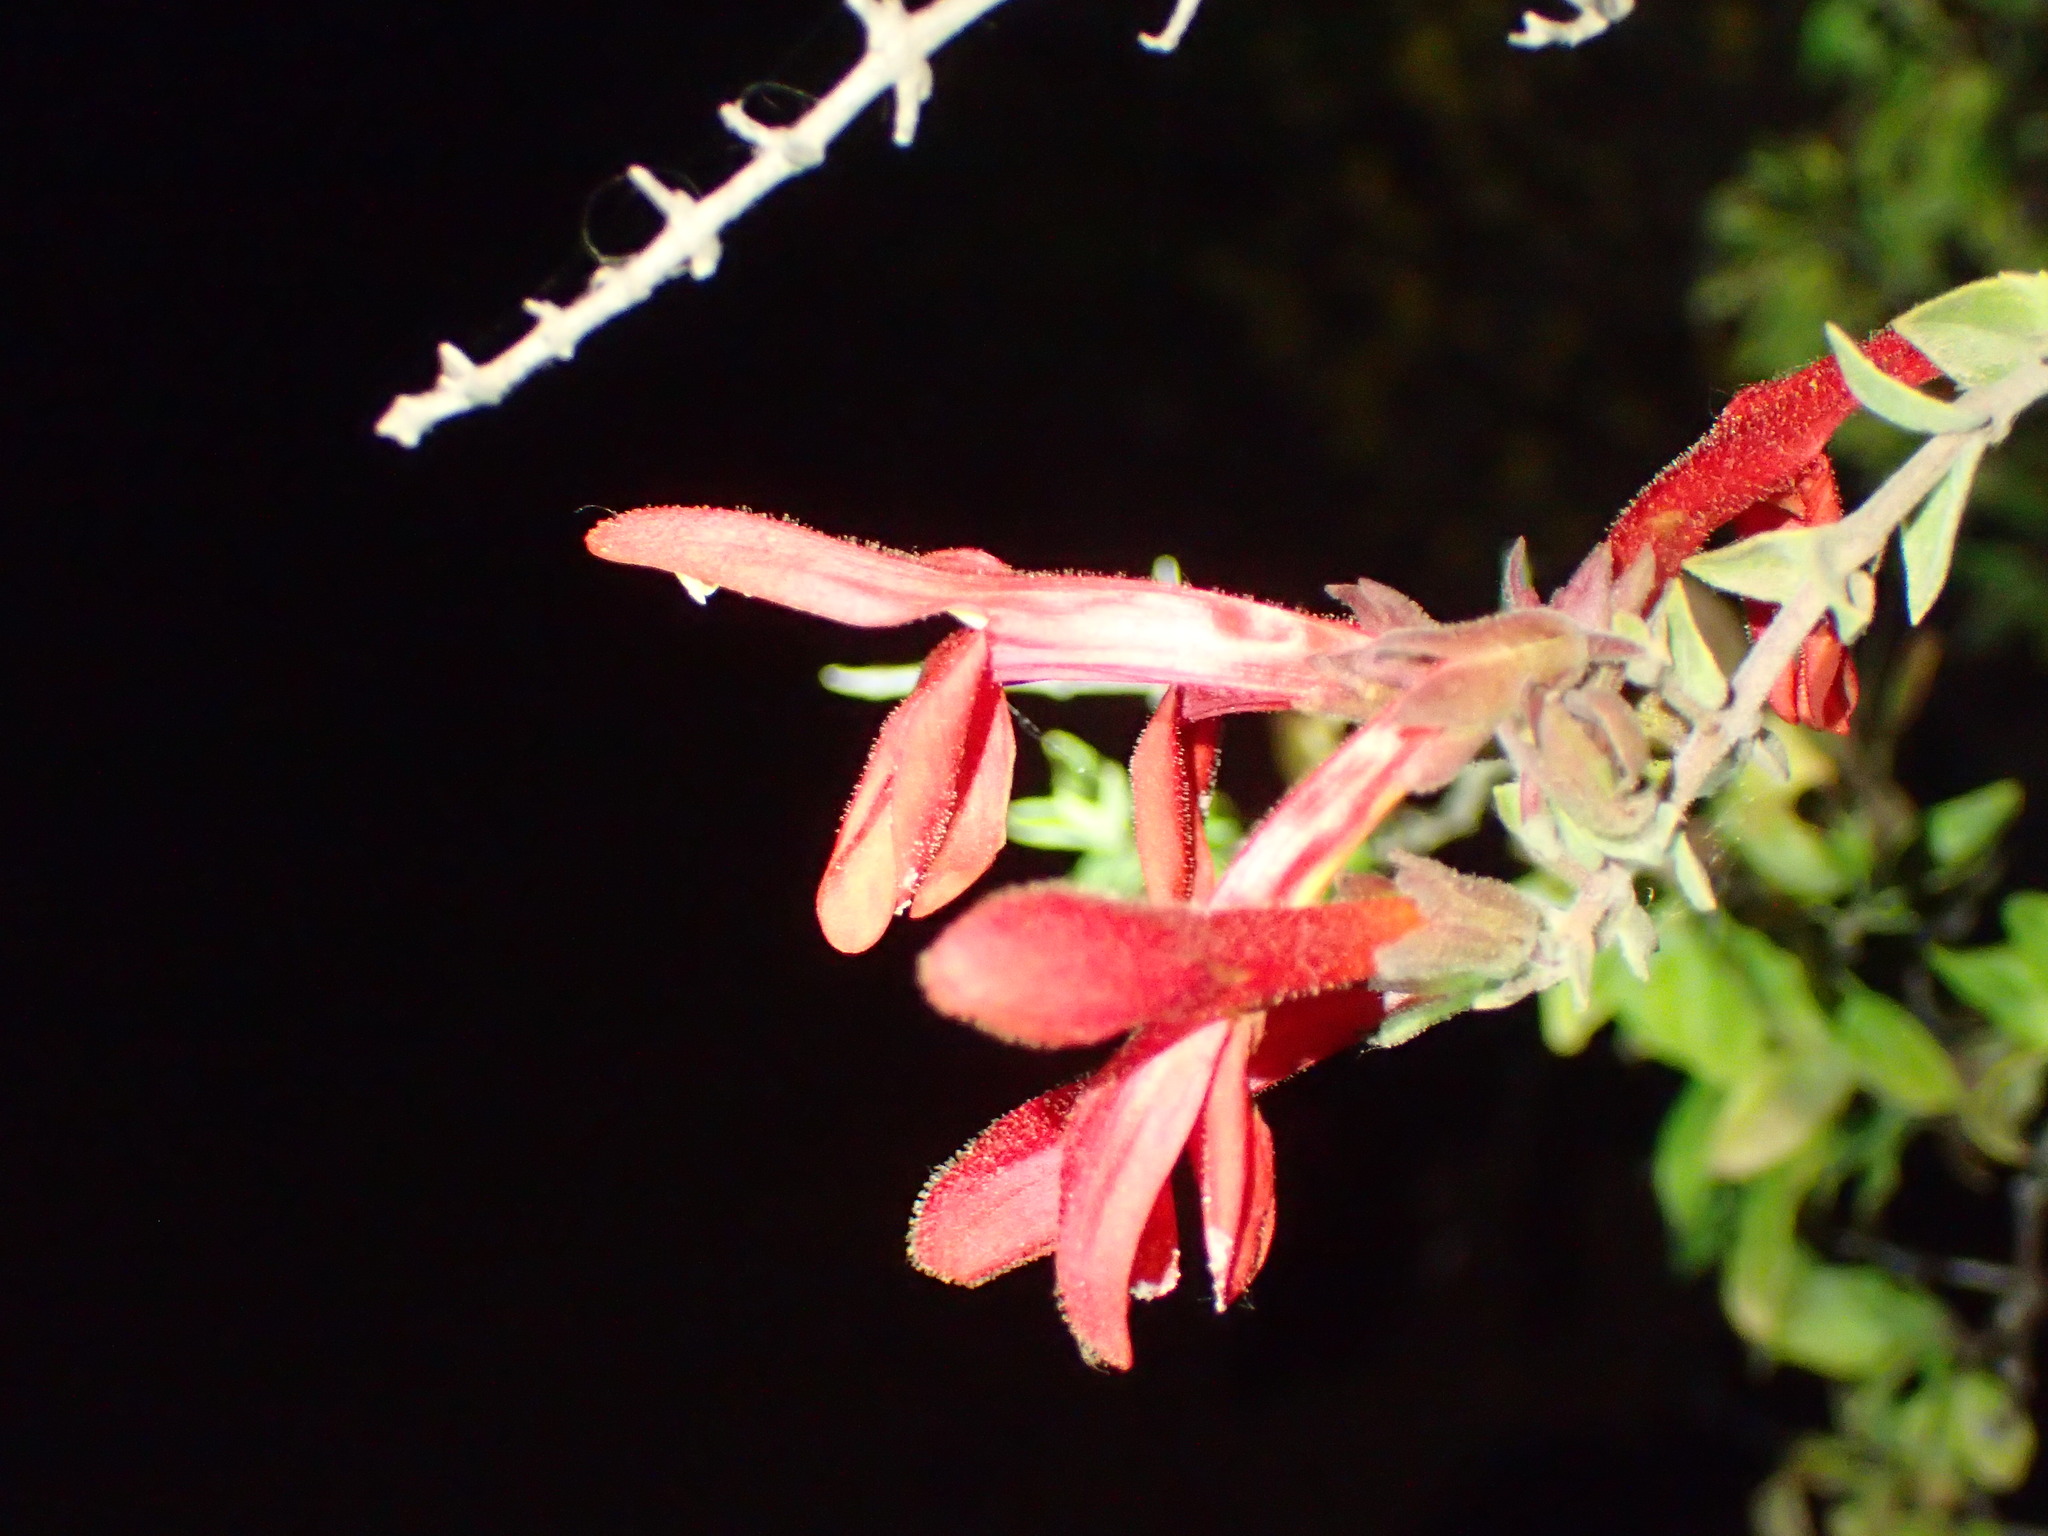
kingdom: Plantae
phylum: Tracheophyta
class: Magnoliopsida
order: Lamiales
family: Plantaginaceae
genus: Keckiella
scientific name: Keckiella cordifolia
